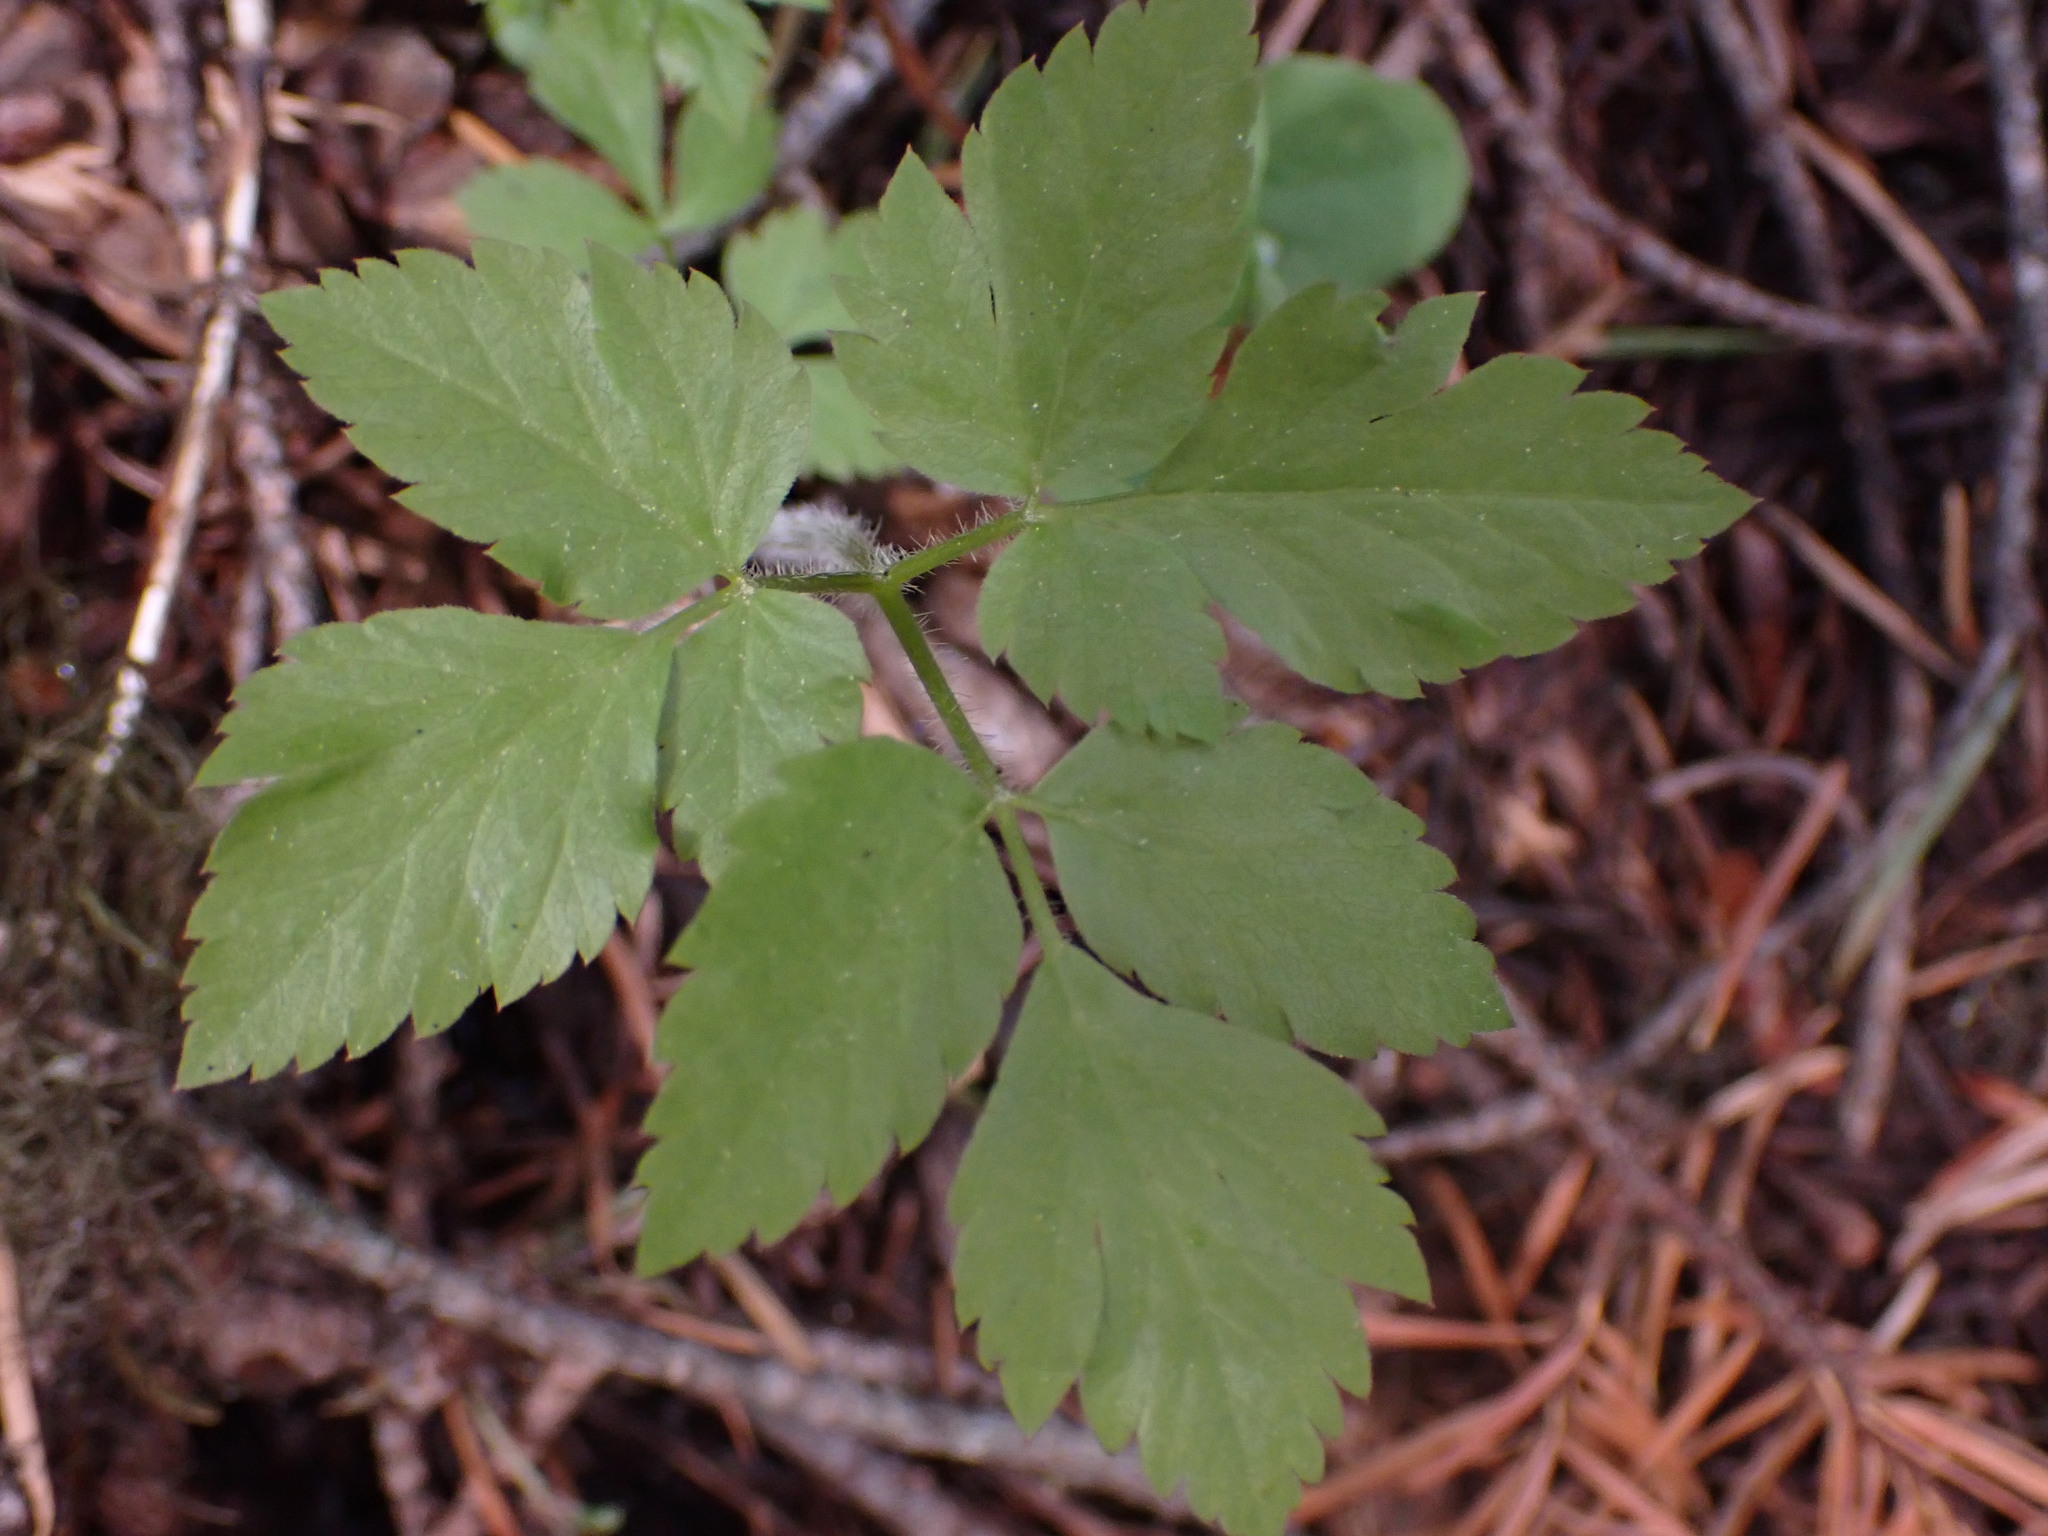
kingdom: Plantae
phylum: Tracheophyta
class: Magnoliopsida
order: Apiales
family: Apiaceae
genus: Osmorhiza
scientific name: Osmorhiza berteroi
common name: Mountain sweet cicely
